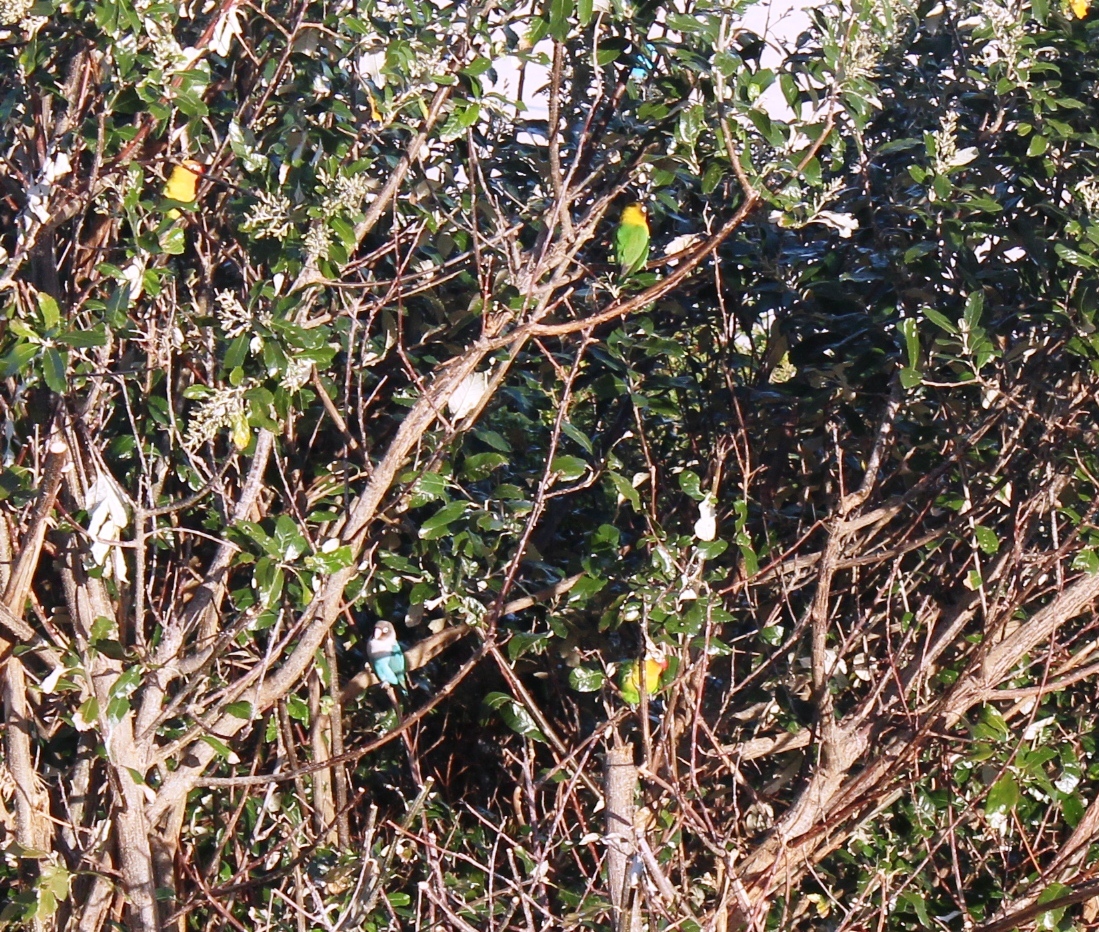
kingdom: Animalia
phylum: Chordata
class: Aves
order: Psittaciformes
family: Psittacidae
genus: Agapornis
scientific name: Agapornis personatus
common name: Yellow-collared lovebird
